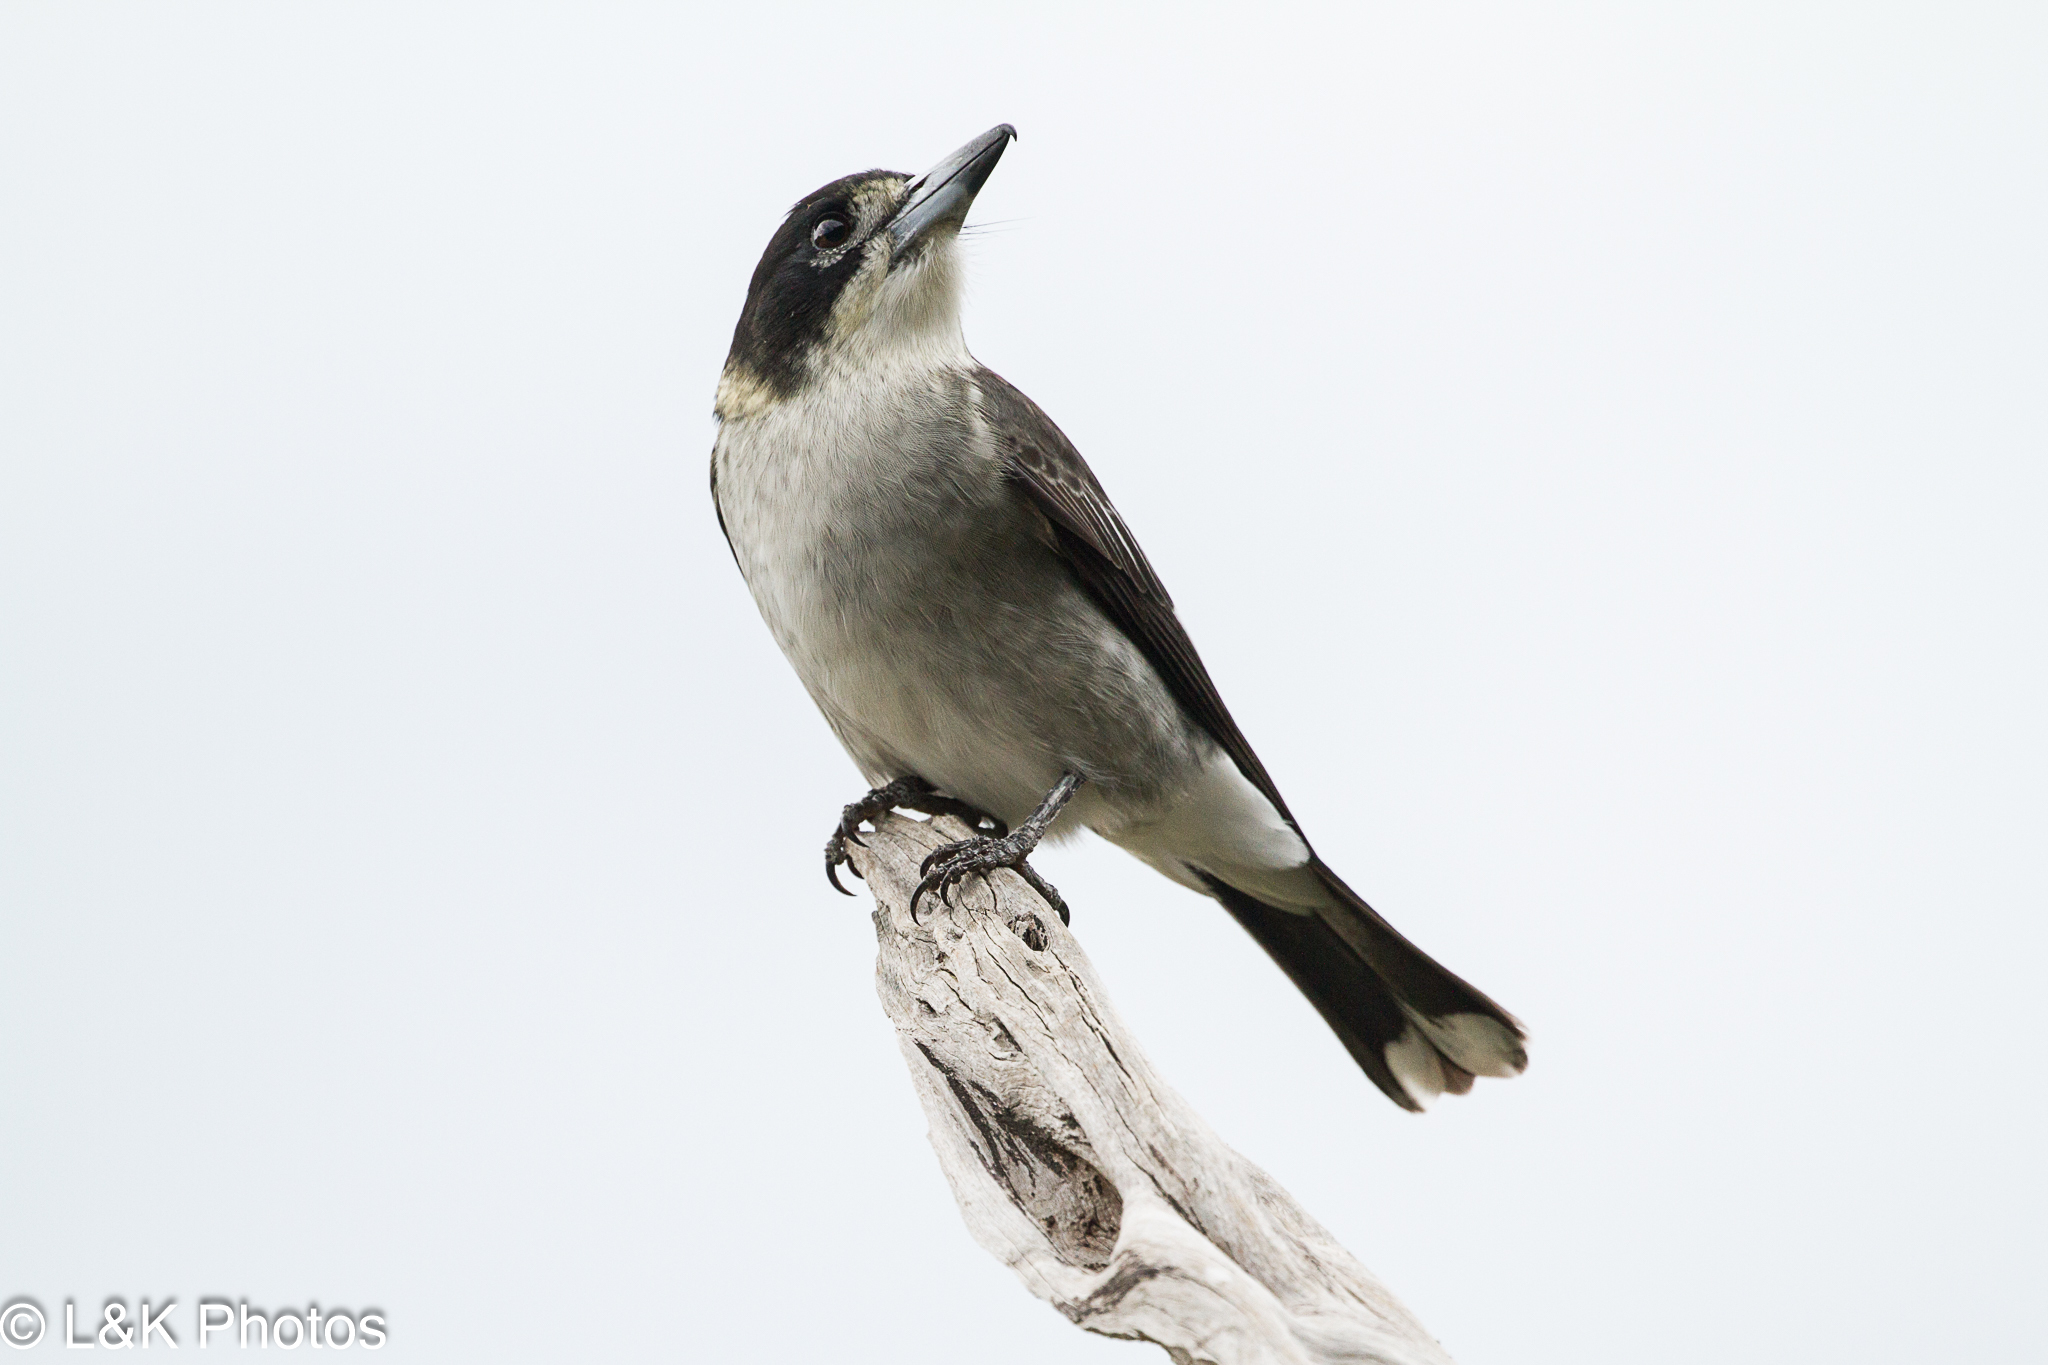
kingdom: Animalia
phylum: Chordata
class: Aves
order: Passeriformes
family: Cracticidae
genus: Cracticus
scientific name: Cracticus torquatus
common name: Grey butcherbird
